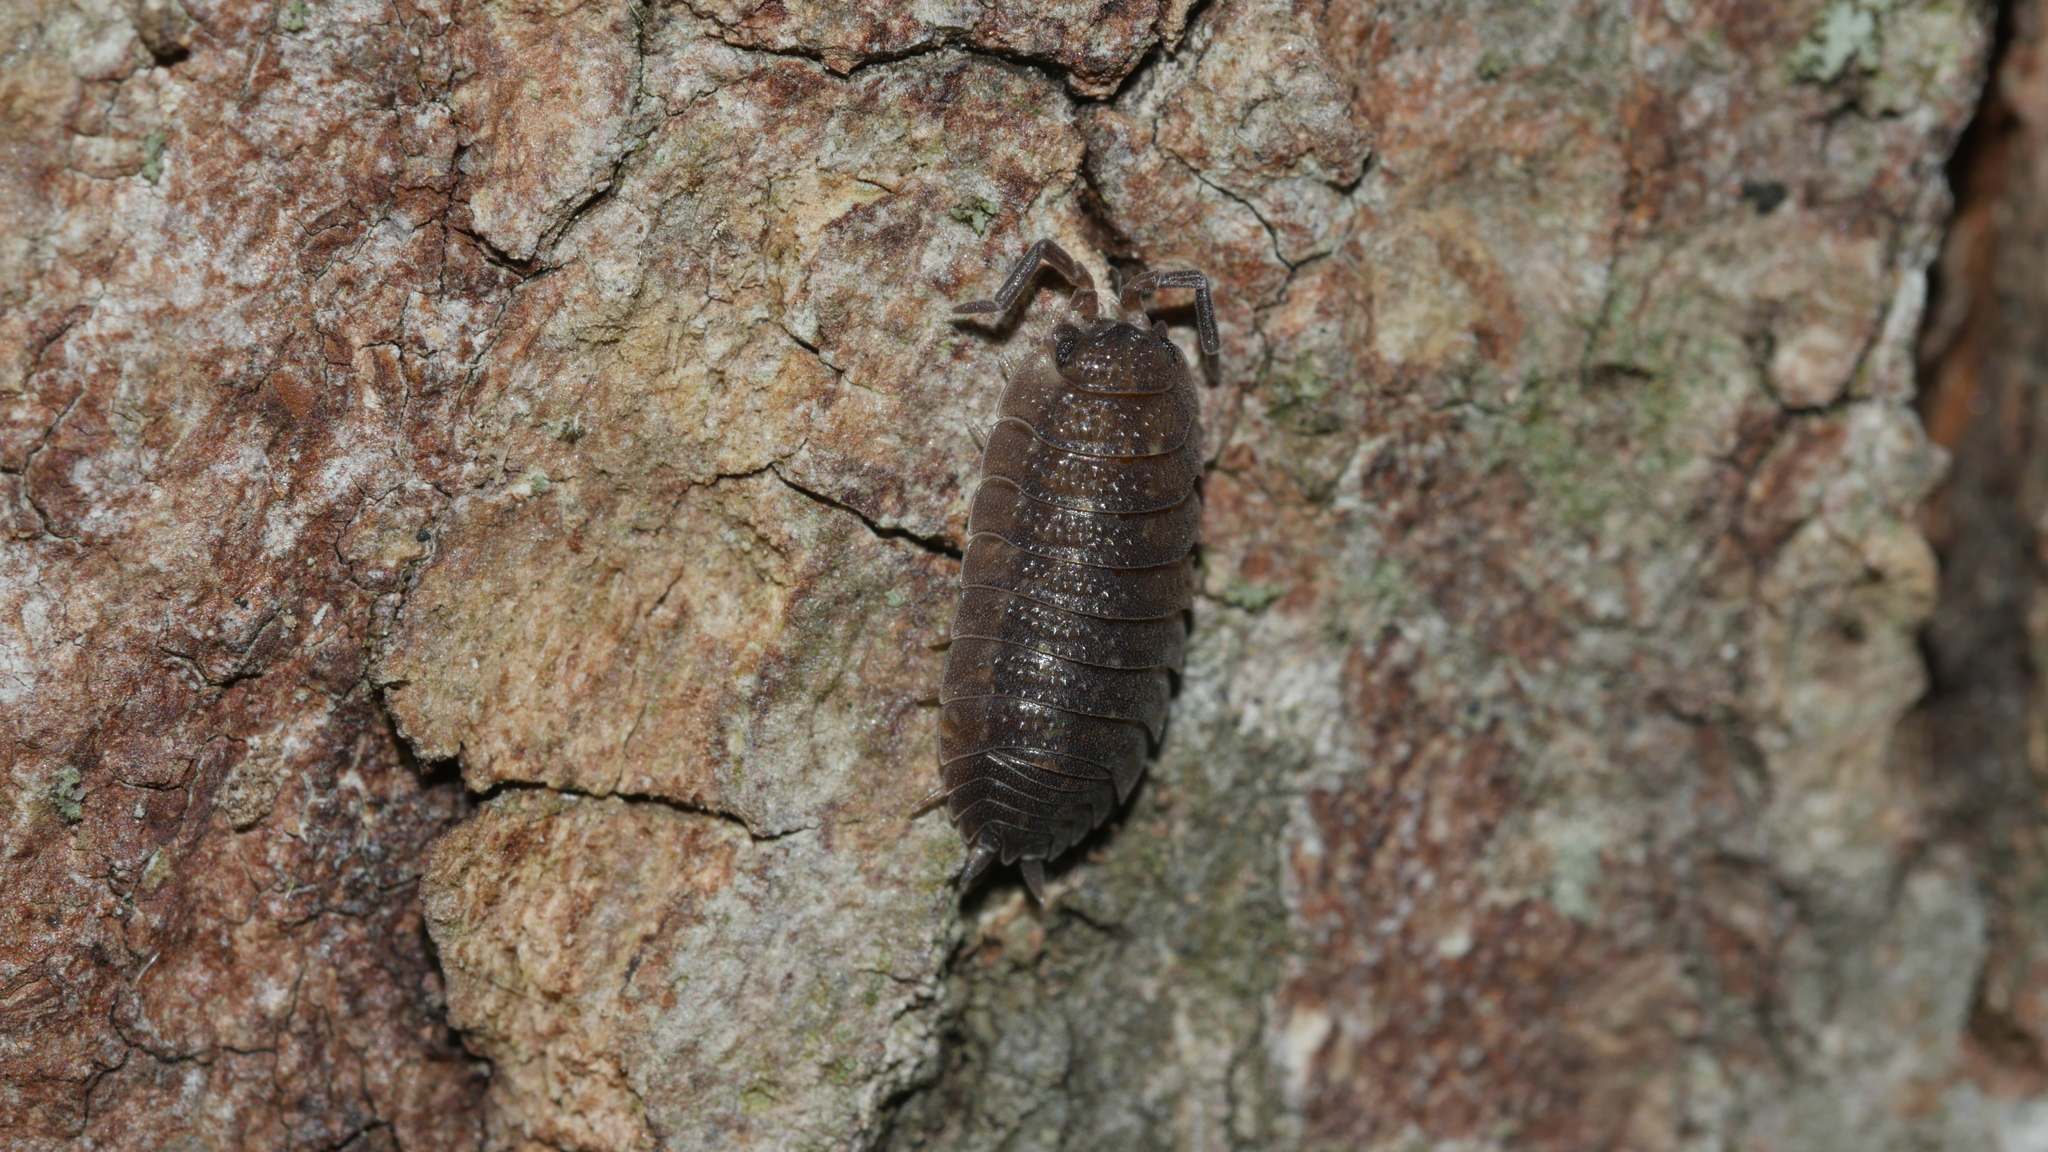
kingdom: Animalia
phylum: Arthropoda
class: Malacostraca
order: Isopoda
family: Porcellionidae
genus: Porcellio
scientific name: Porcellio scaber
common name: Common rough woodlouse
